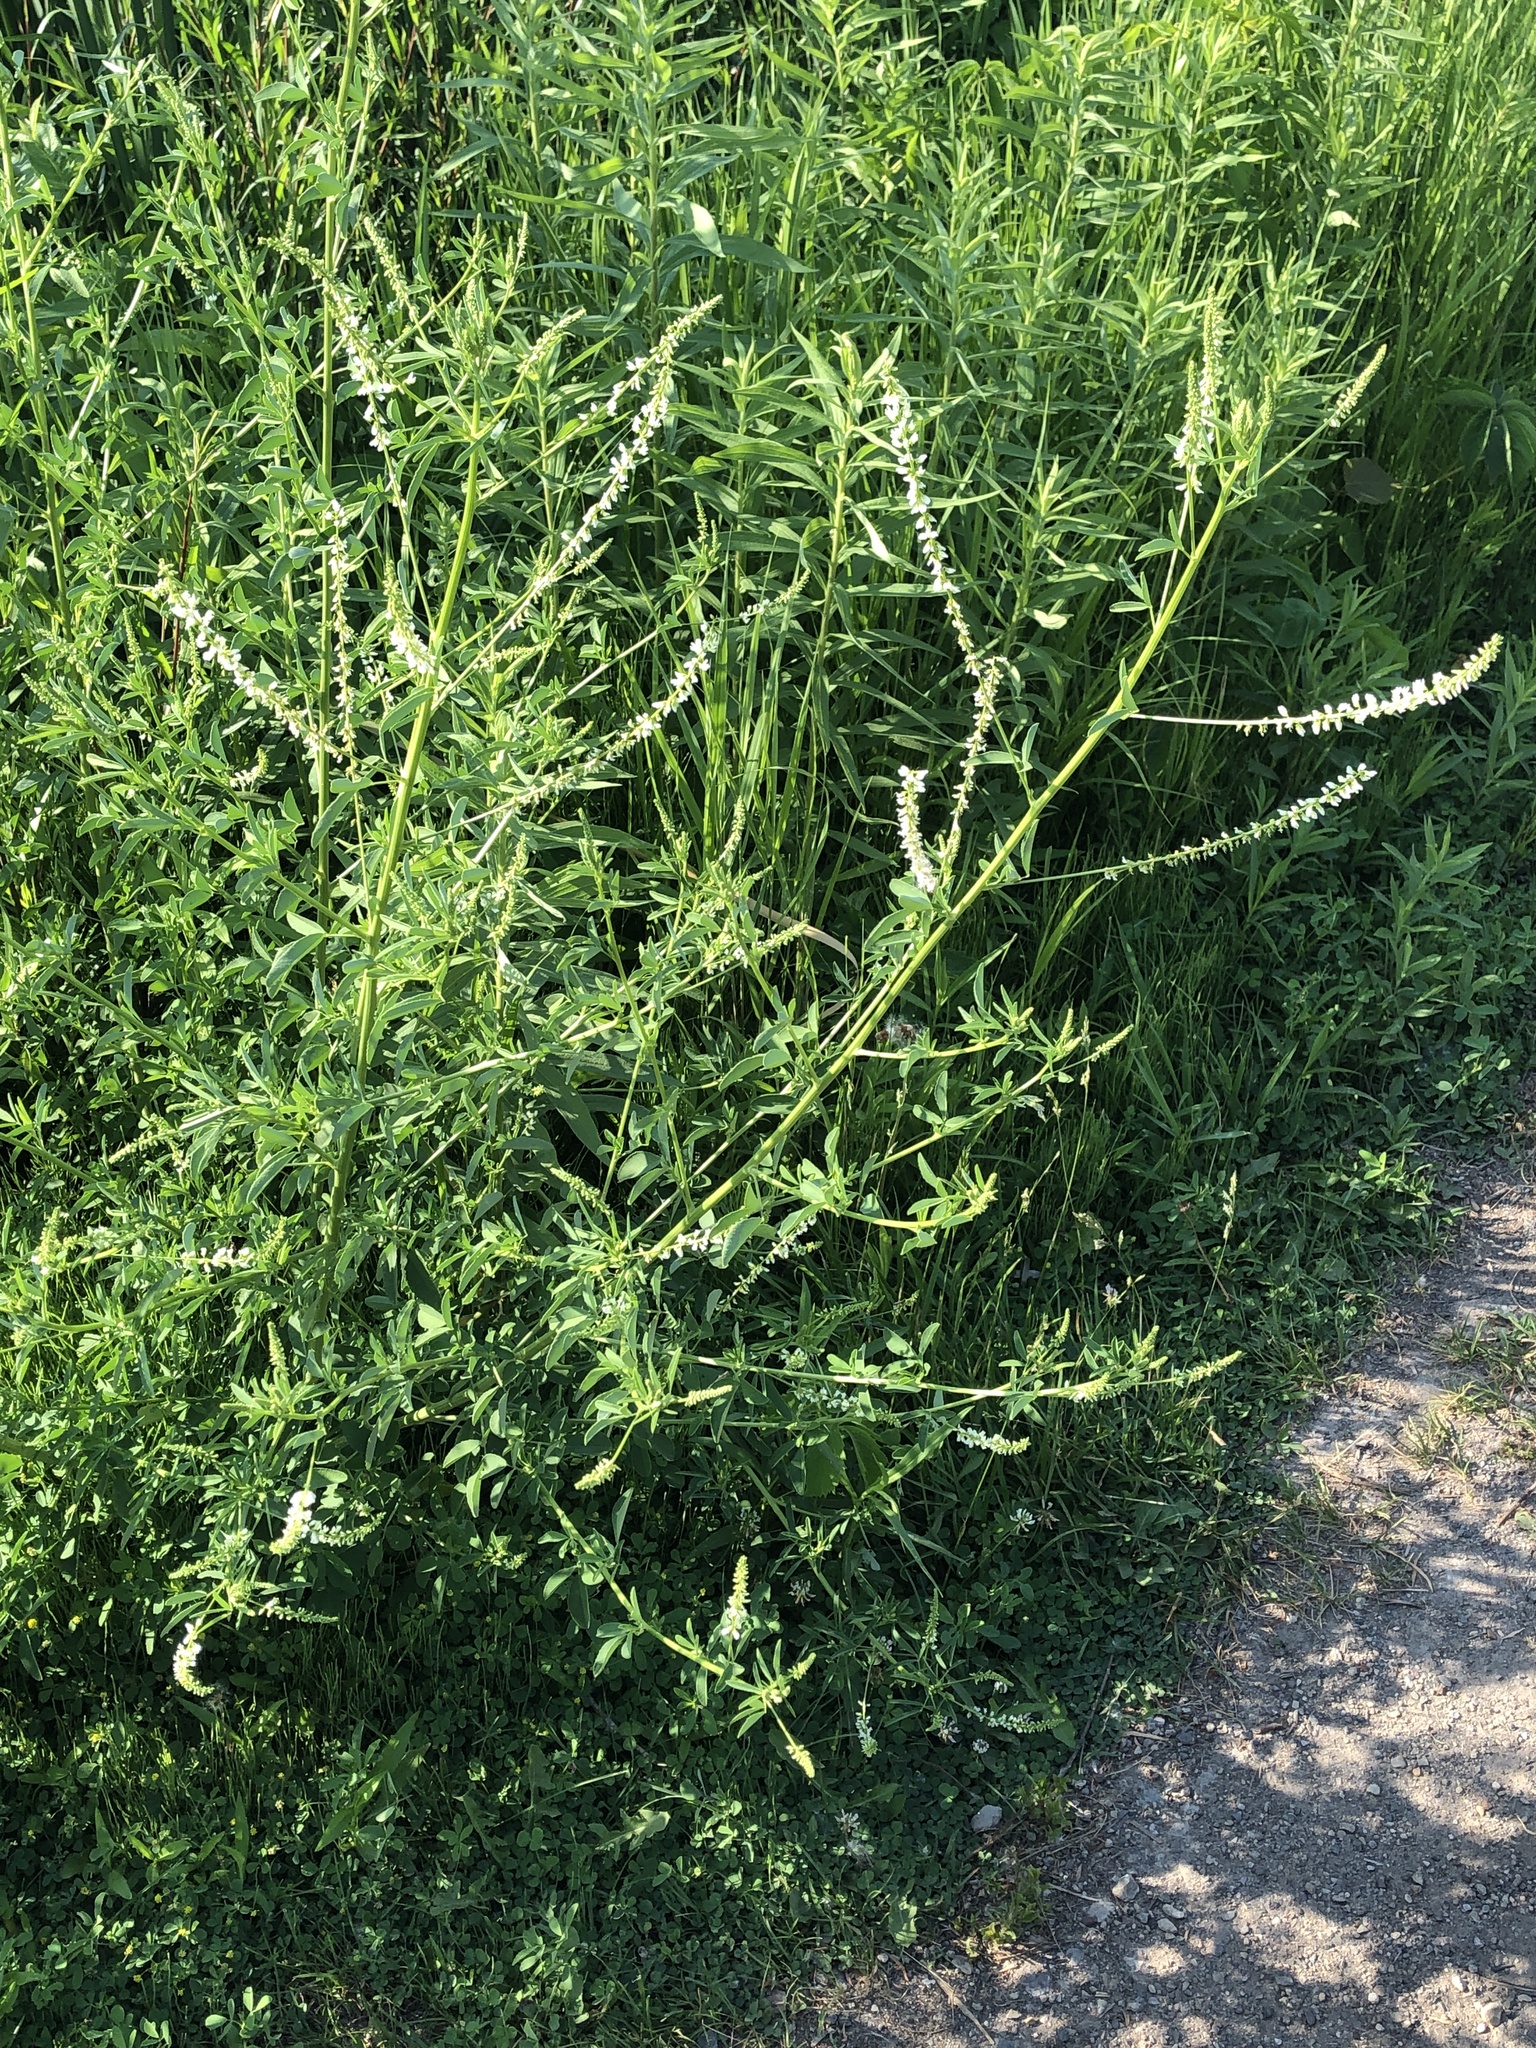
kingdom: Plantae
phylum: Tracheophyta
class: Magnoliopsida
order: Fabales
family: Fabaceae
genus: Melilotus
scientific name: Melilotus albus
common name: White melilot
